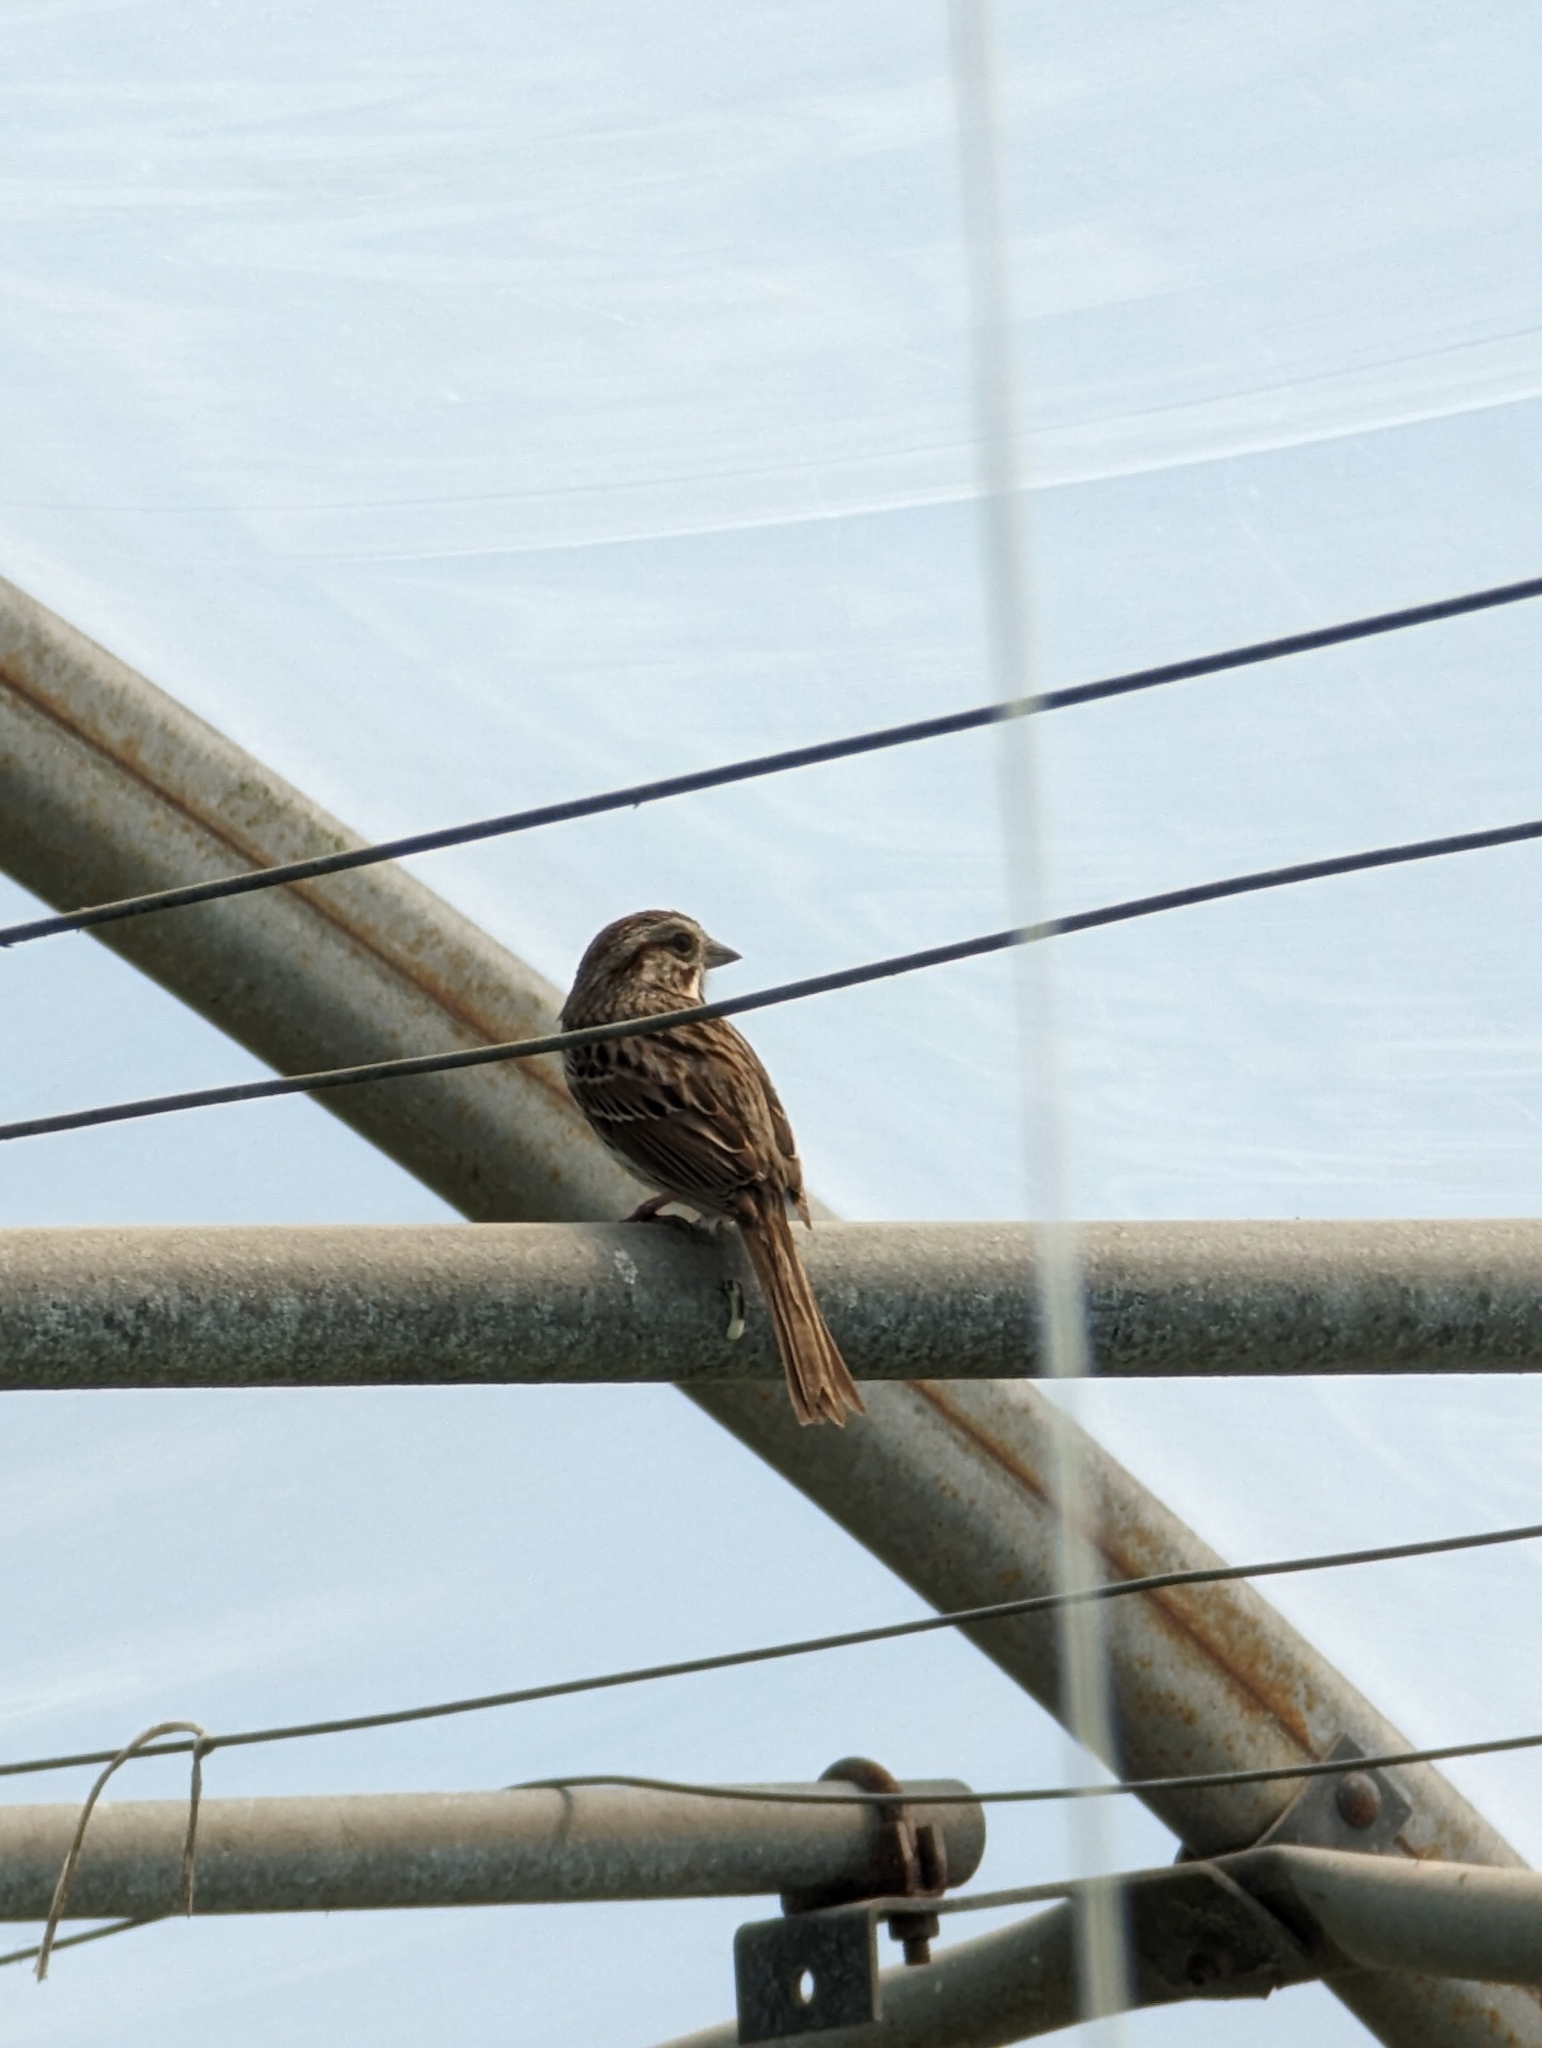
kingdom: Animalia
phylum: Chordata
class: Aves
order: Passeriformes
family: Passerellidae
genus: Melospiza
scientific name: Melospiza melodia
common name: Song sparrow
